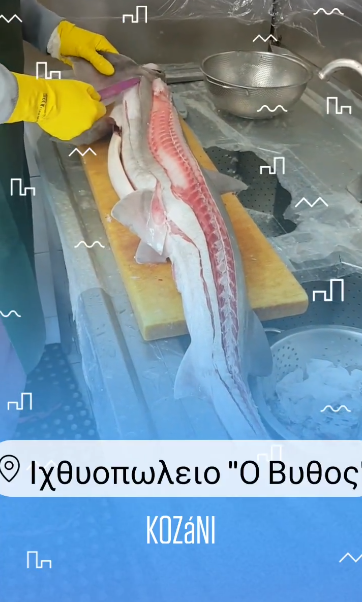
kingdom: Animalia
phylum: Chordata
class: Elasmobranchii
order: Carcharhiniformes
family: Triakidae
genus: Mustelus
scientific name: Mustelus mustelus
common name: Smooth-hound
